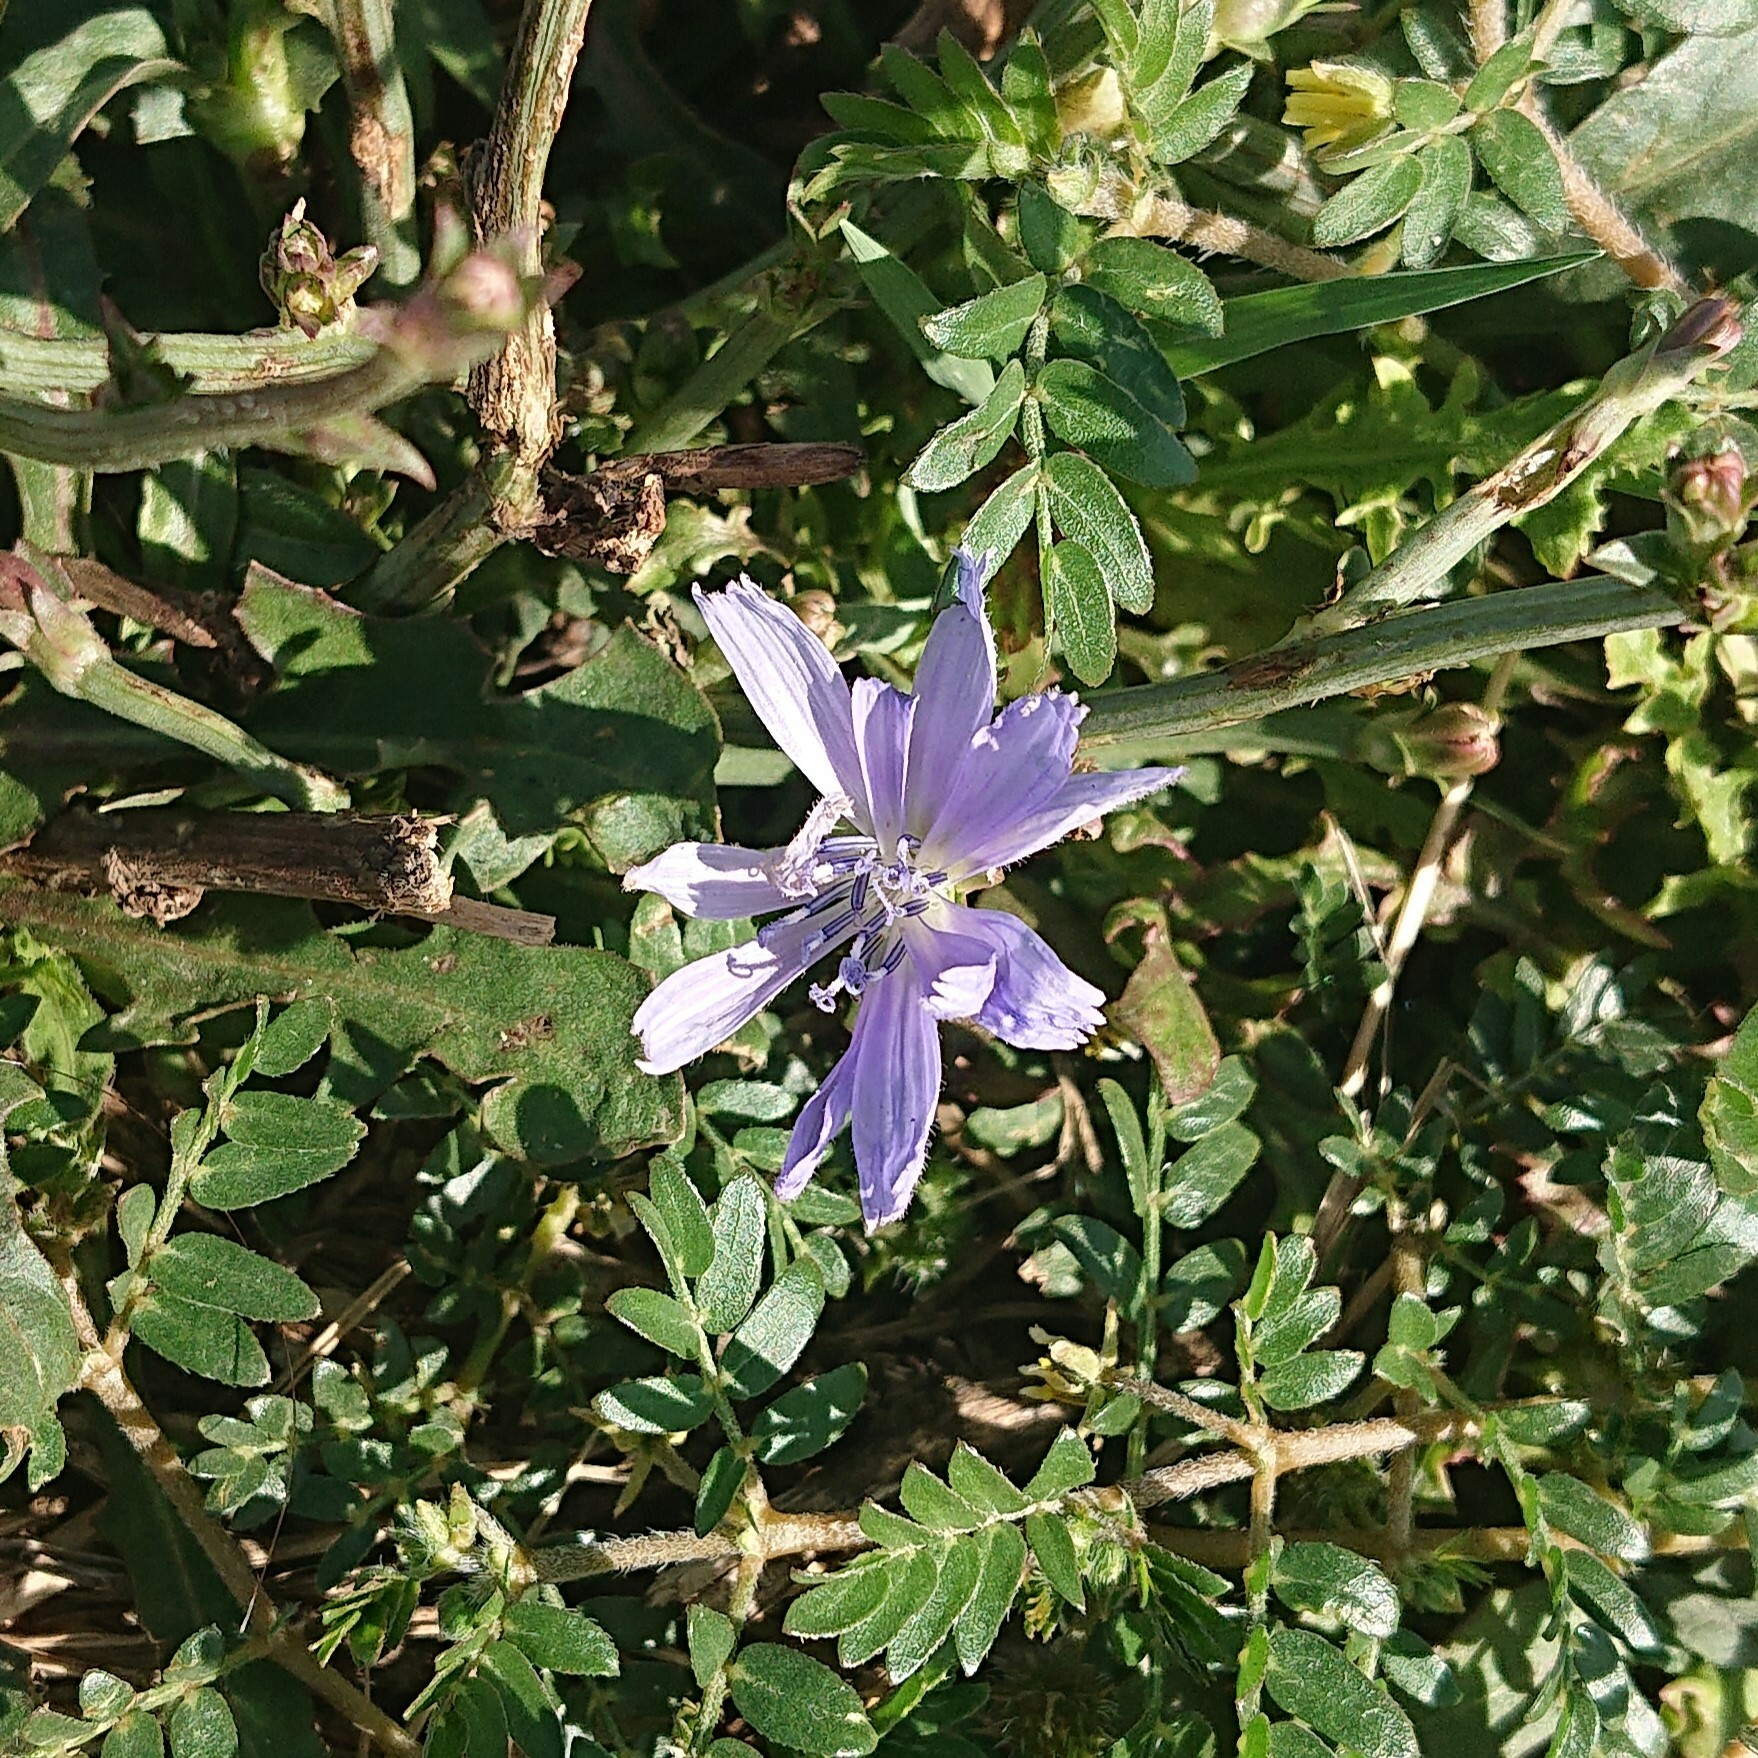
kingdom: Plantae
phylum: Tracheophyta
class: Magnoliopsida
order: Asterales
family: Asteraceae
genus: Cichorium
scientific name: Cichorium intybus
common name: Chicory
